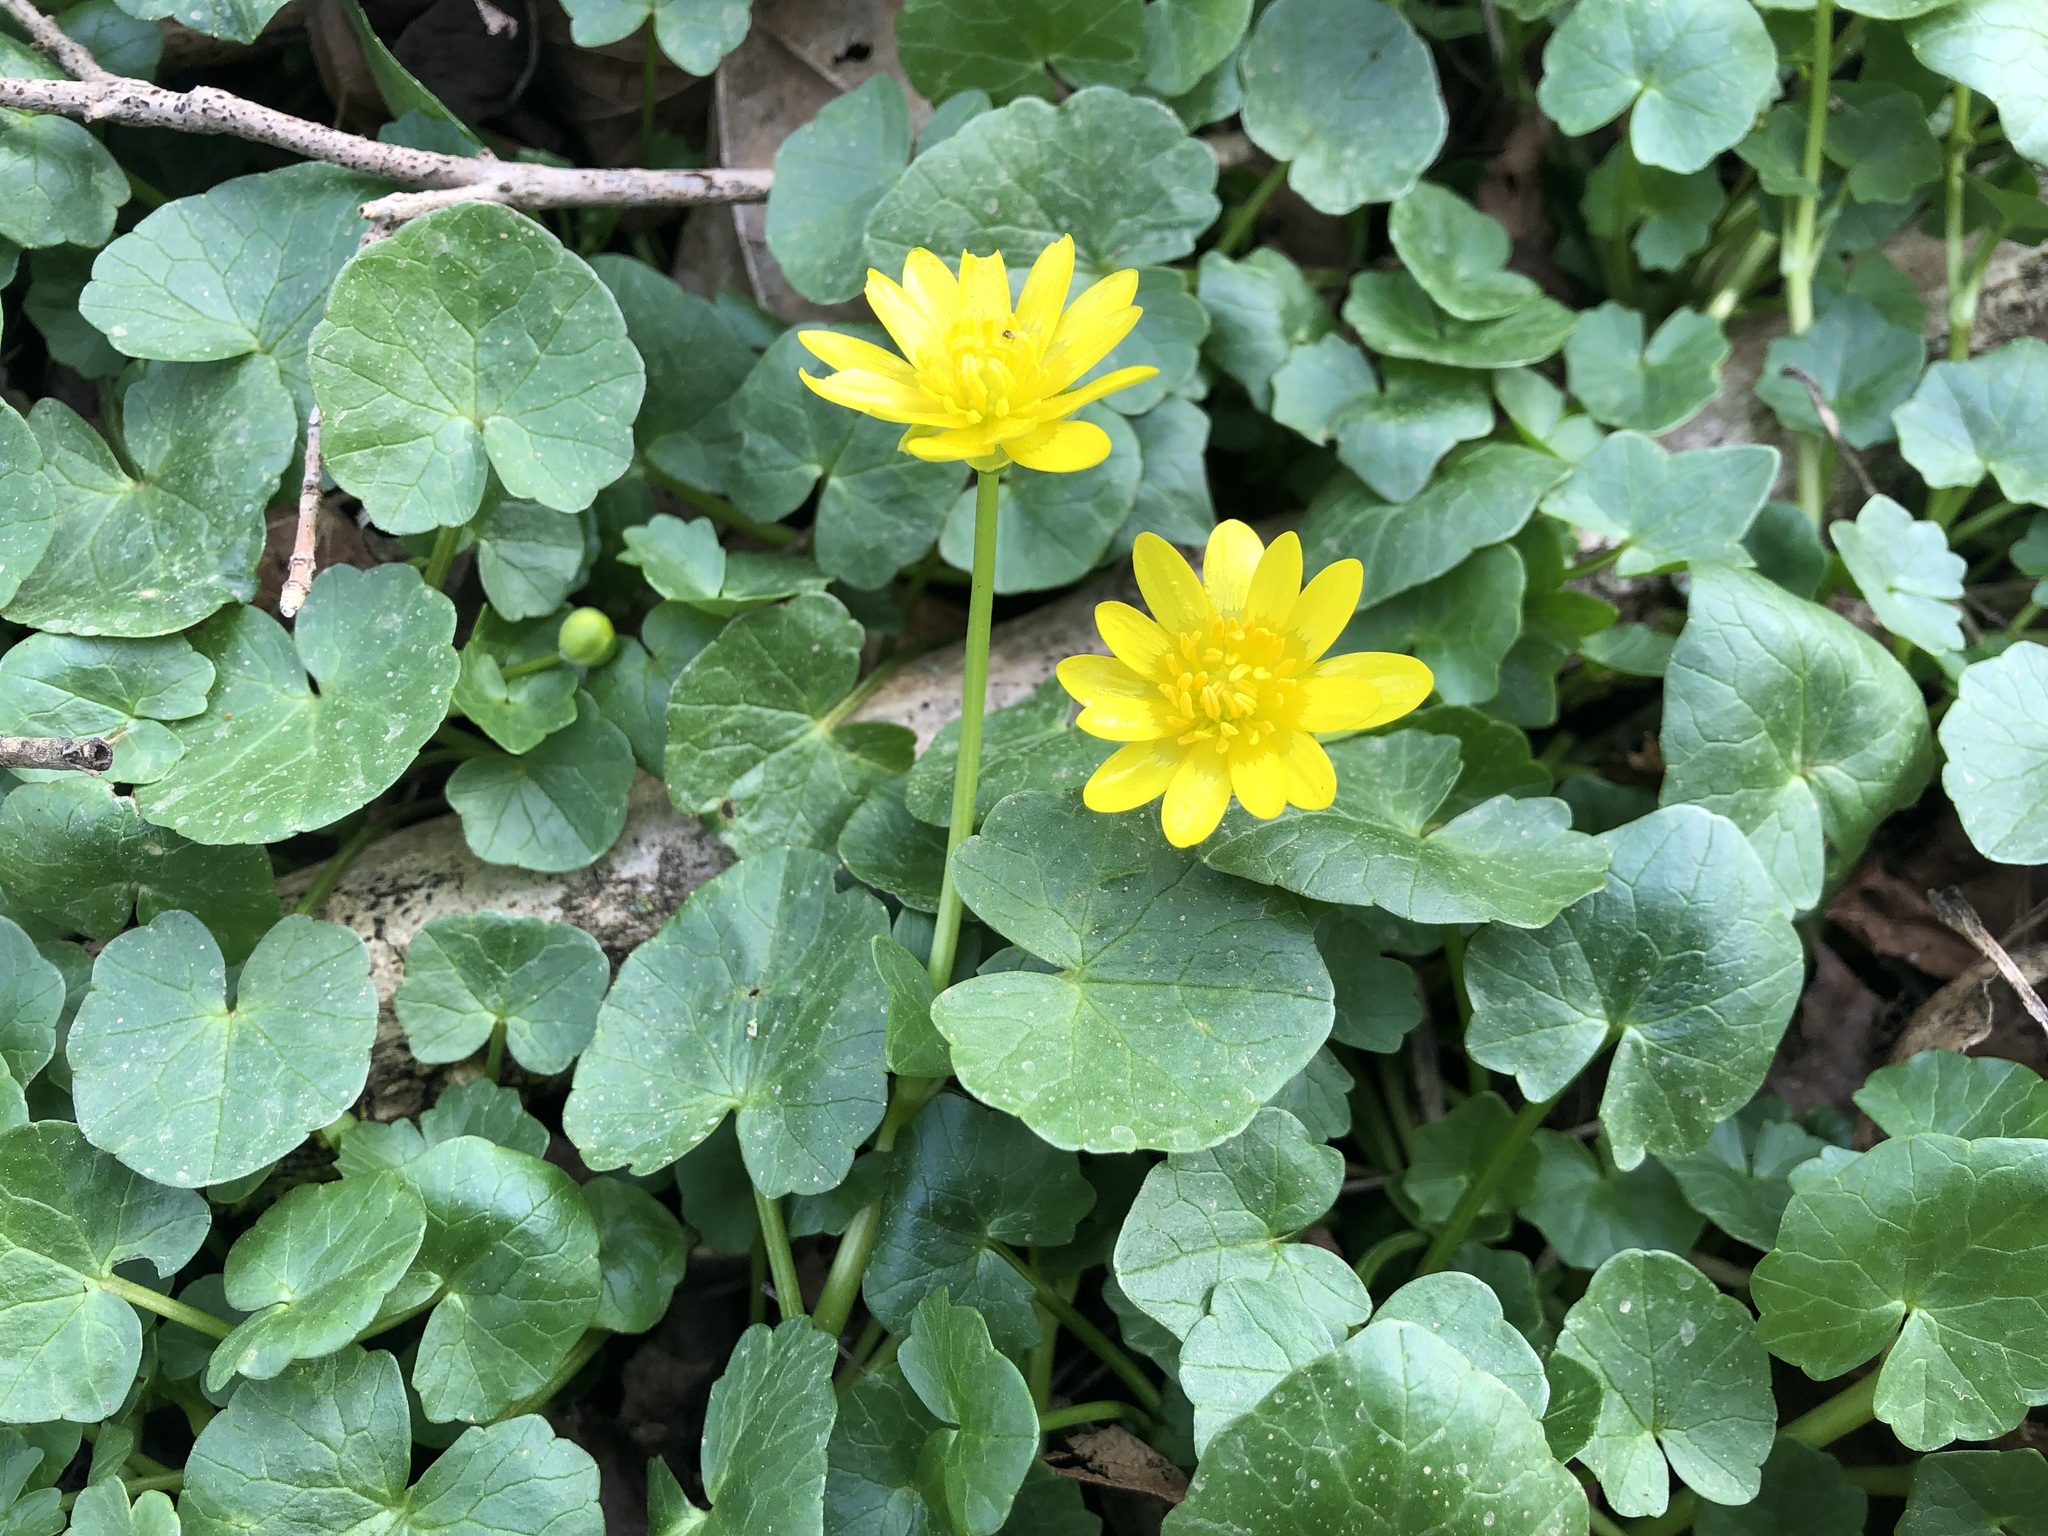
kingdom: Plantae
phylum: Tracheophyta
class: Magnoliopsida
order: Ranunculales
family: Ranunculaceae
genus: Ficaria
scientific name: Ficaria verna
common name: Lesser celandine
